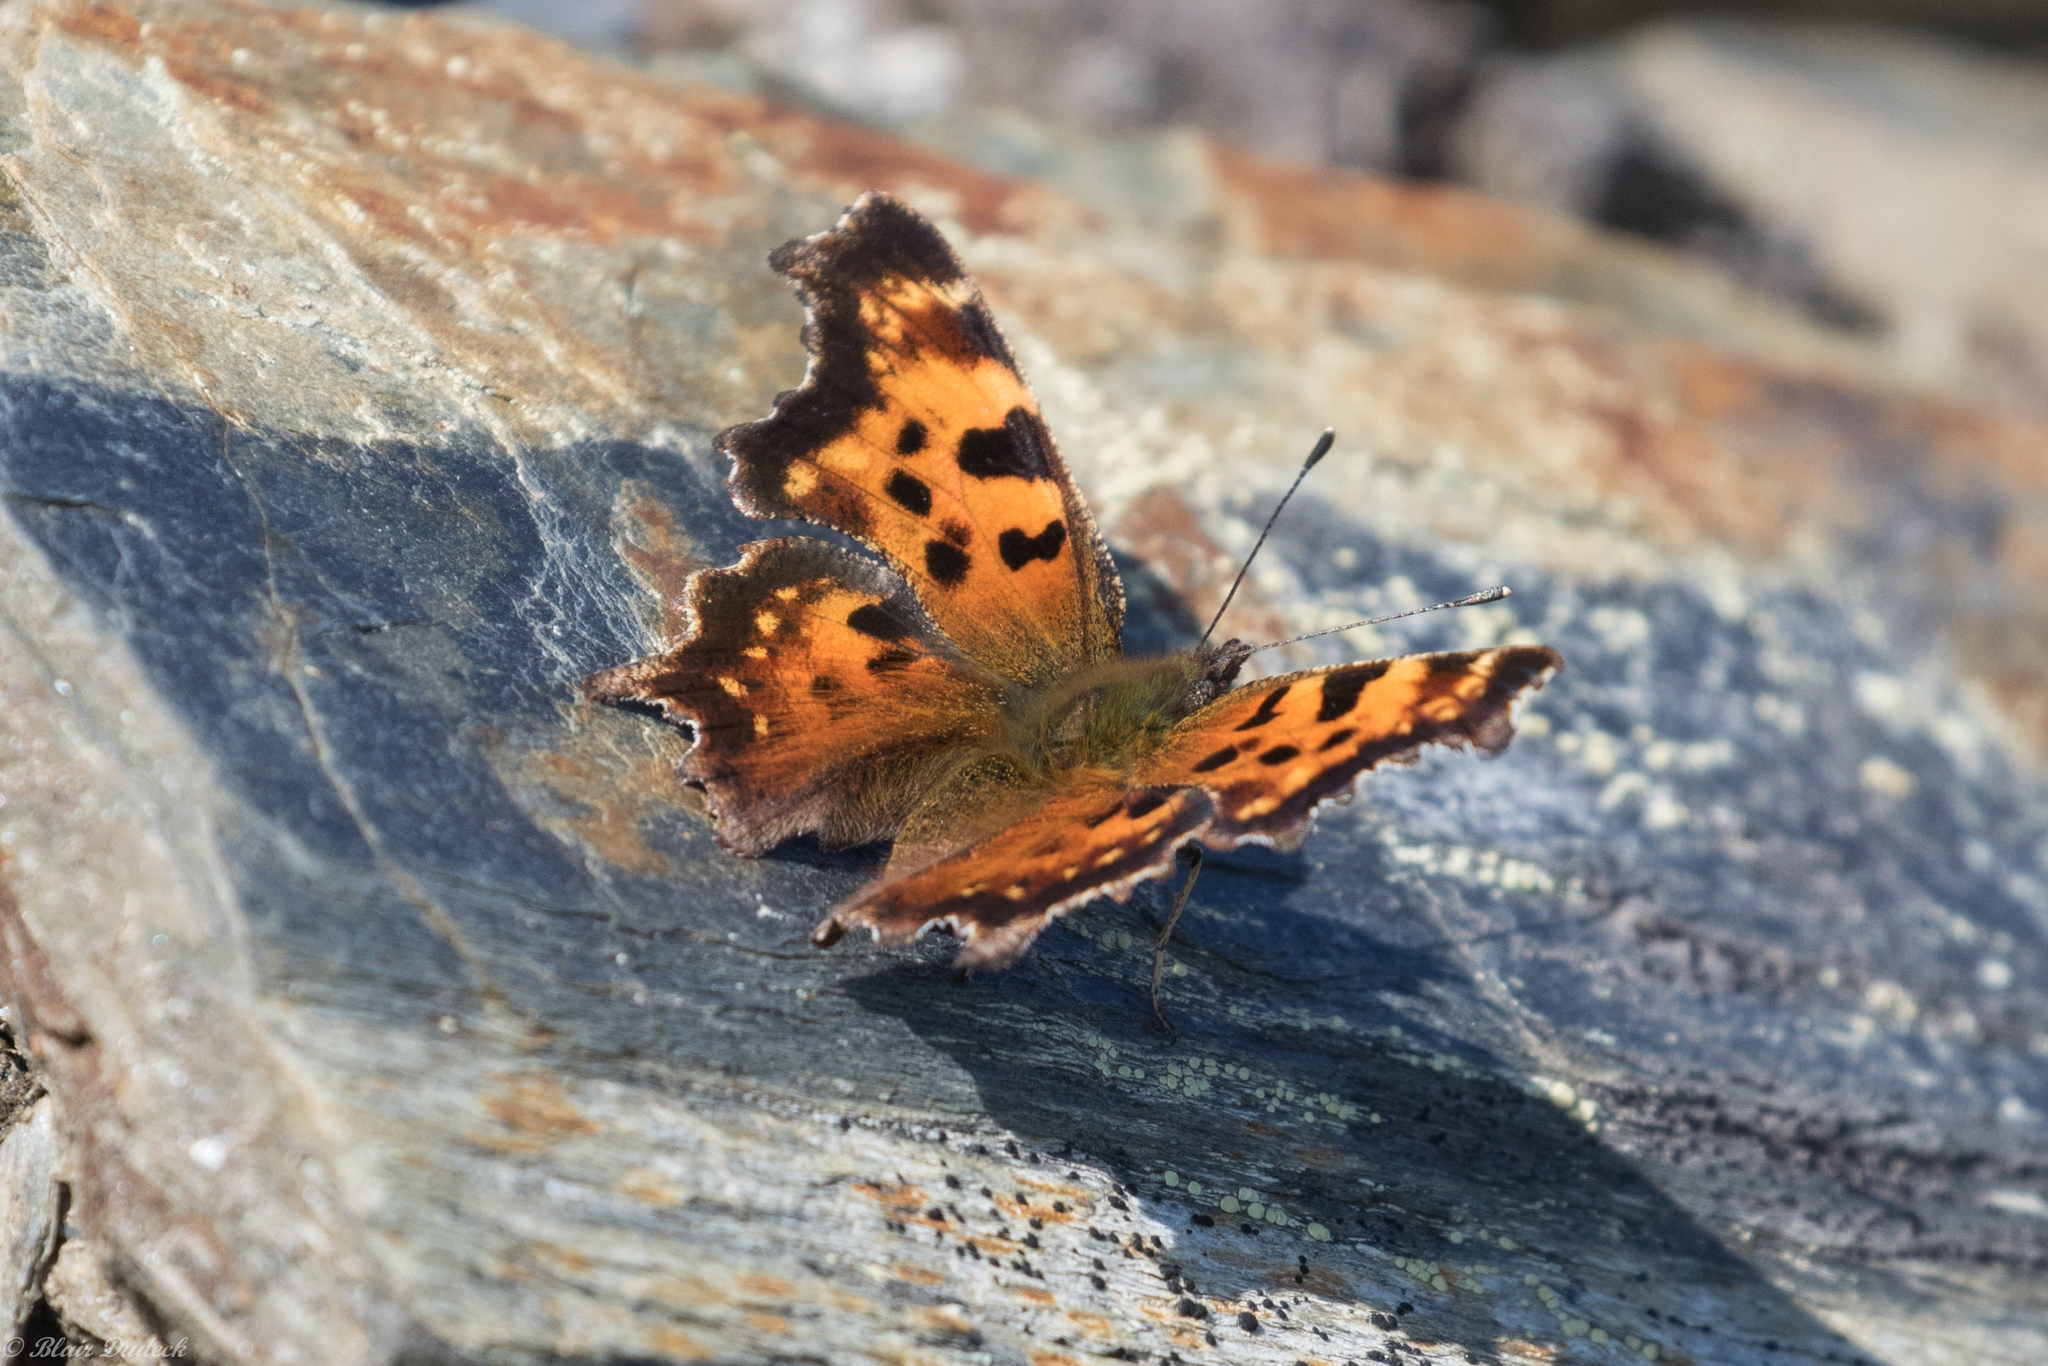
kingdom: Animalia
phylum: Arthropoda
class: Insecta
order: Lepidoptera
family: Nymphalidae
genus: Polygonia
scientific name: Polygonia faunus
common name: Green comma
